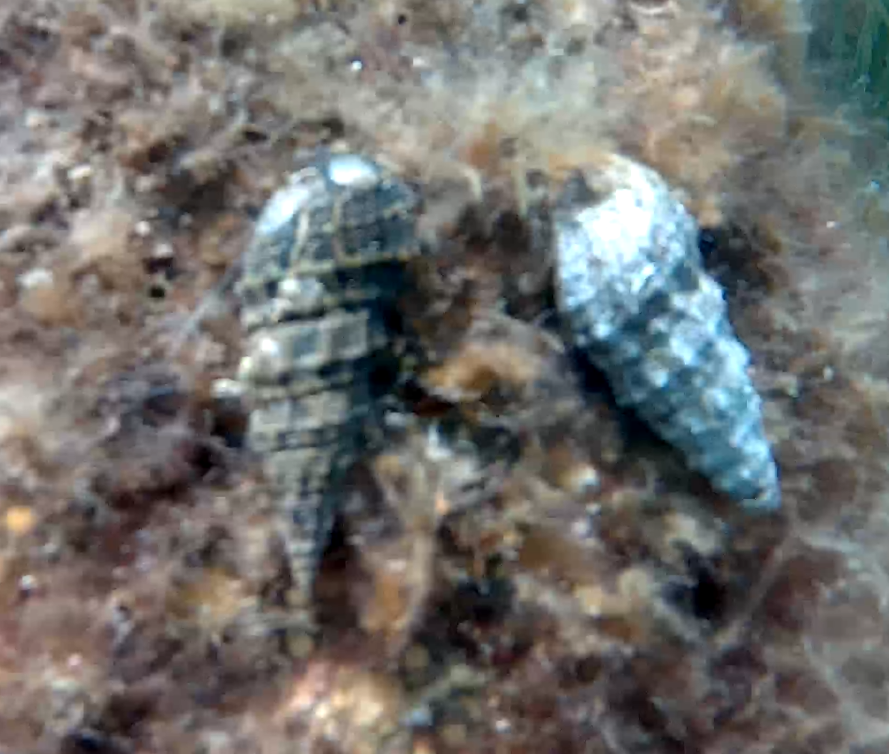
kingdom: Animalia
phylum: Mollusca
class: Gastropoda
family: Cerithiidae
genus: Cerithium
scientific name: Cerithium vulgatum
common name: European cerith
